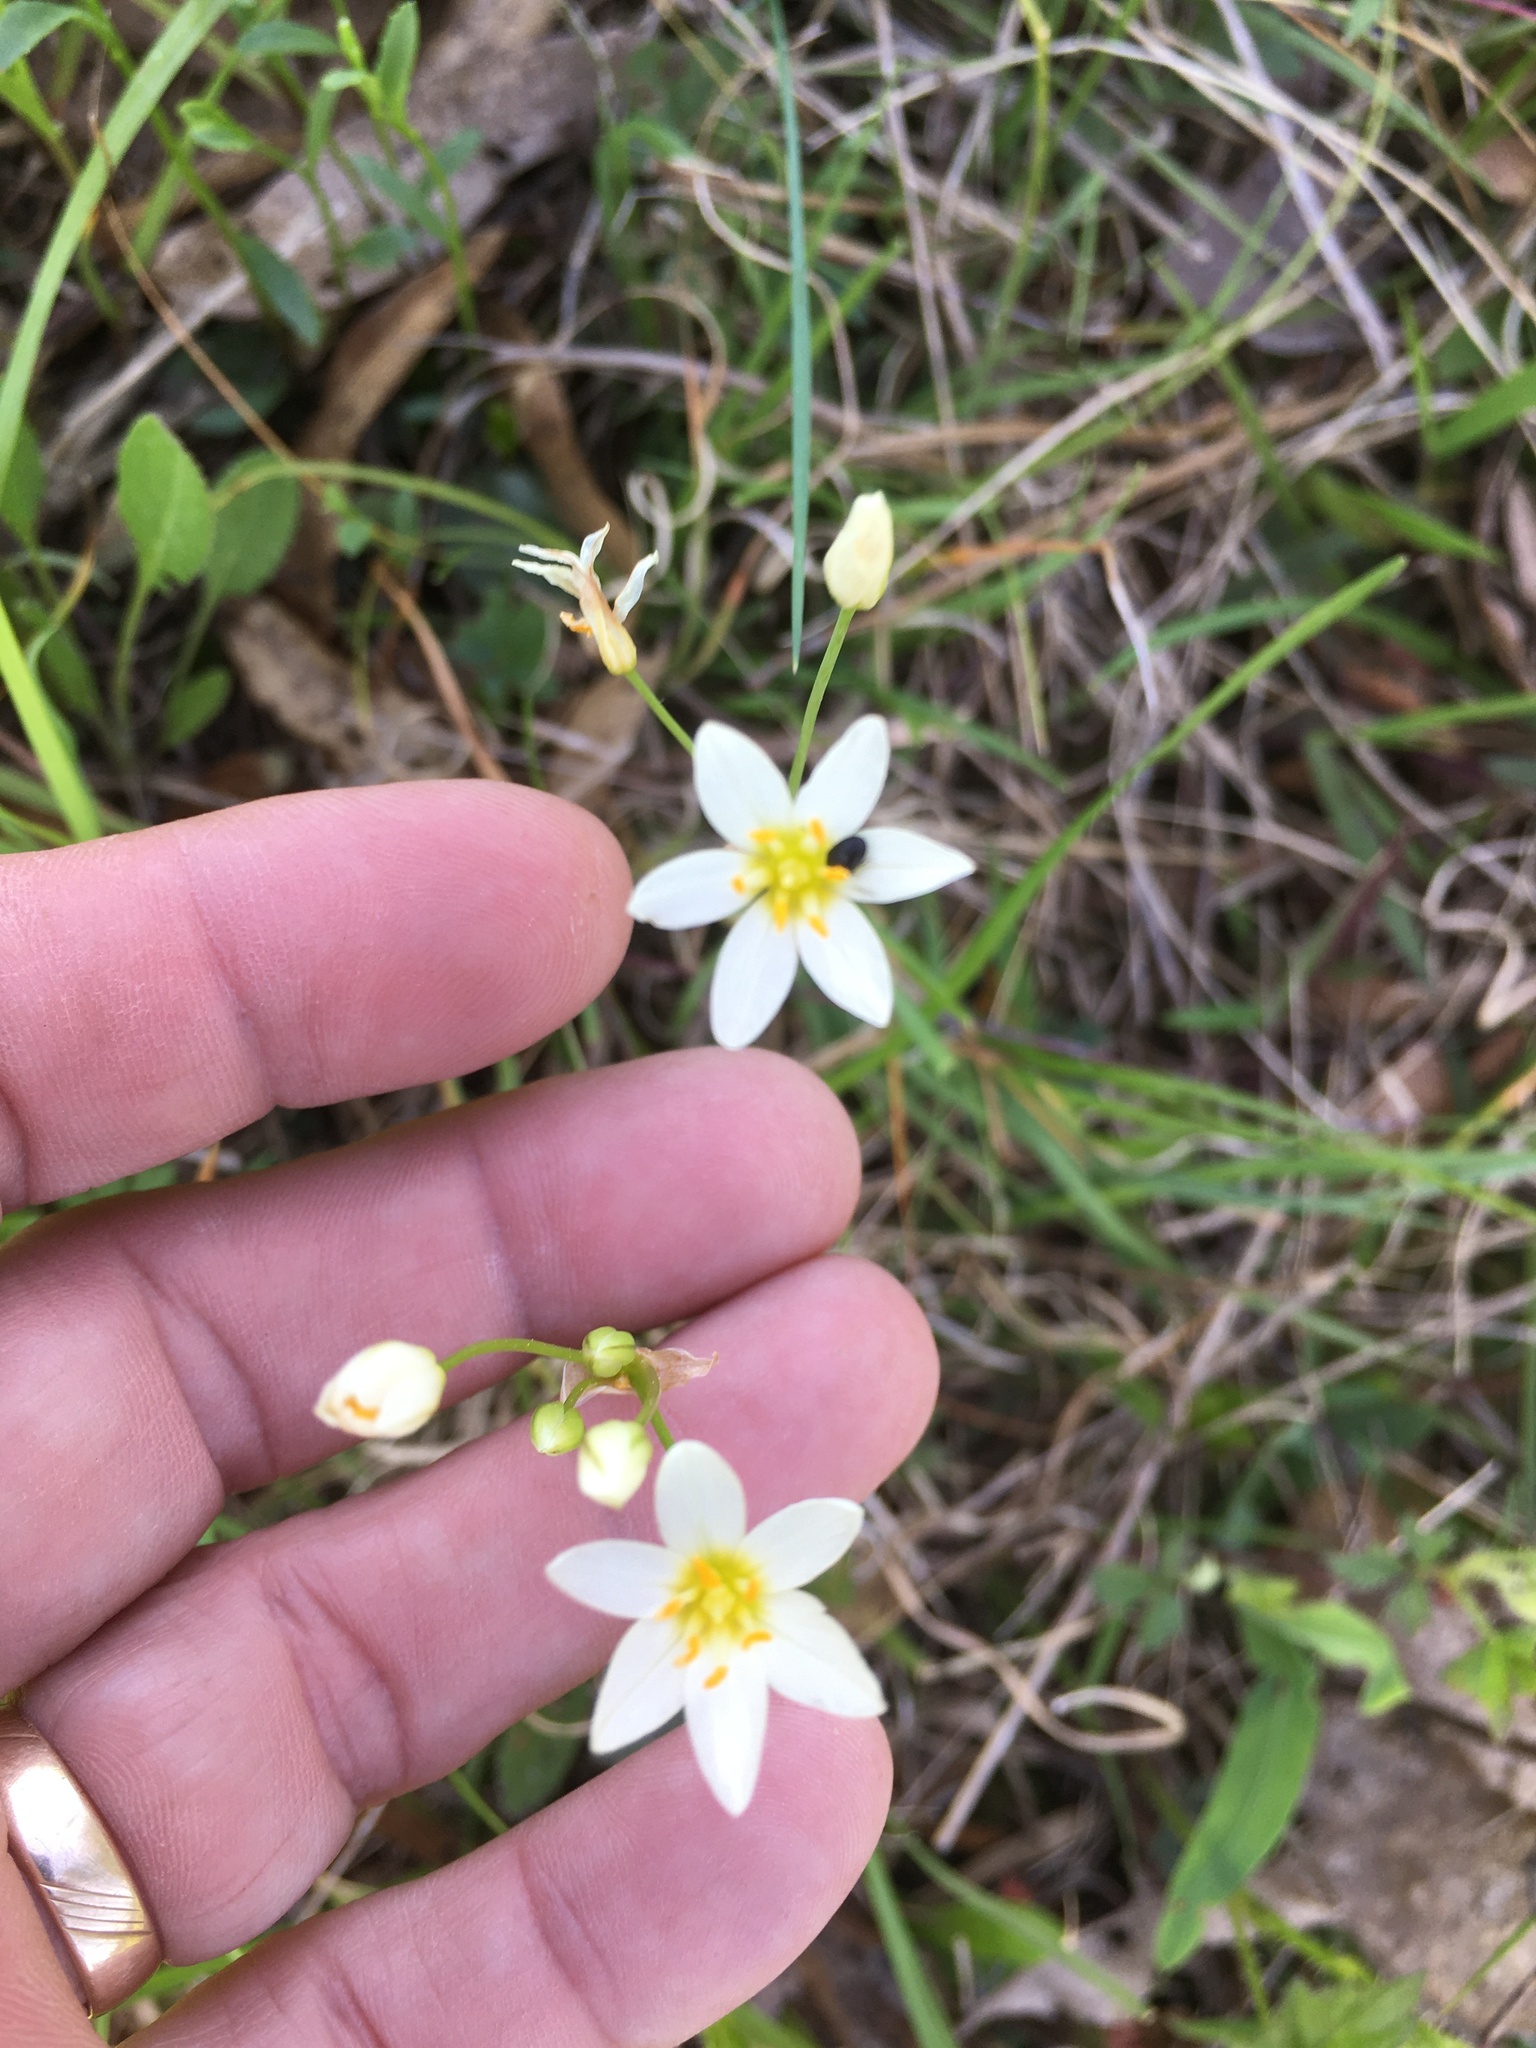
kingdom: Plantae
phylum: Tracheophyta
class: Liliopsida
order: Asparagales
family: Amaryllidaceae
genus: Nothoscordum
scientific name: Nothoscordum bivalve
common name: Crow-poison
